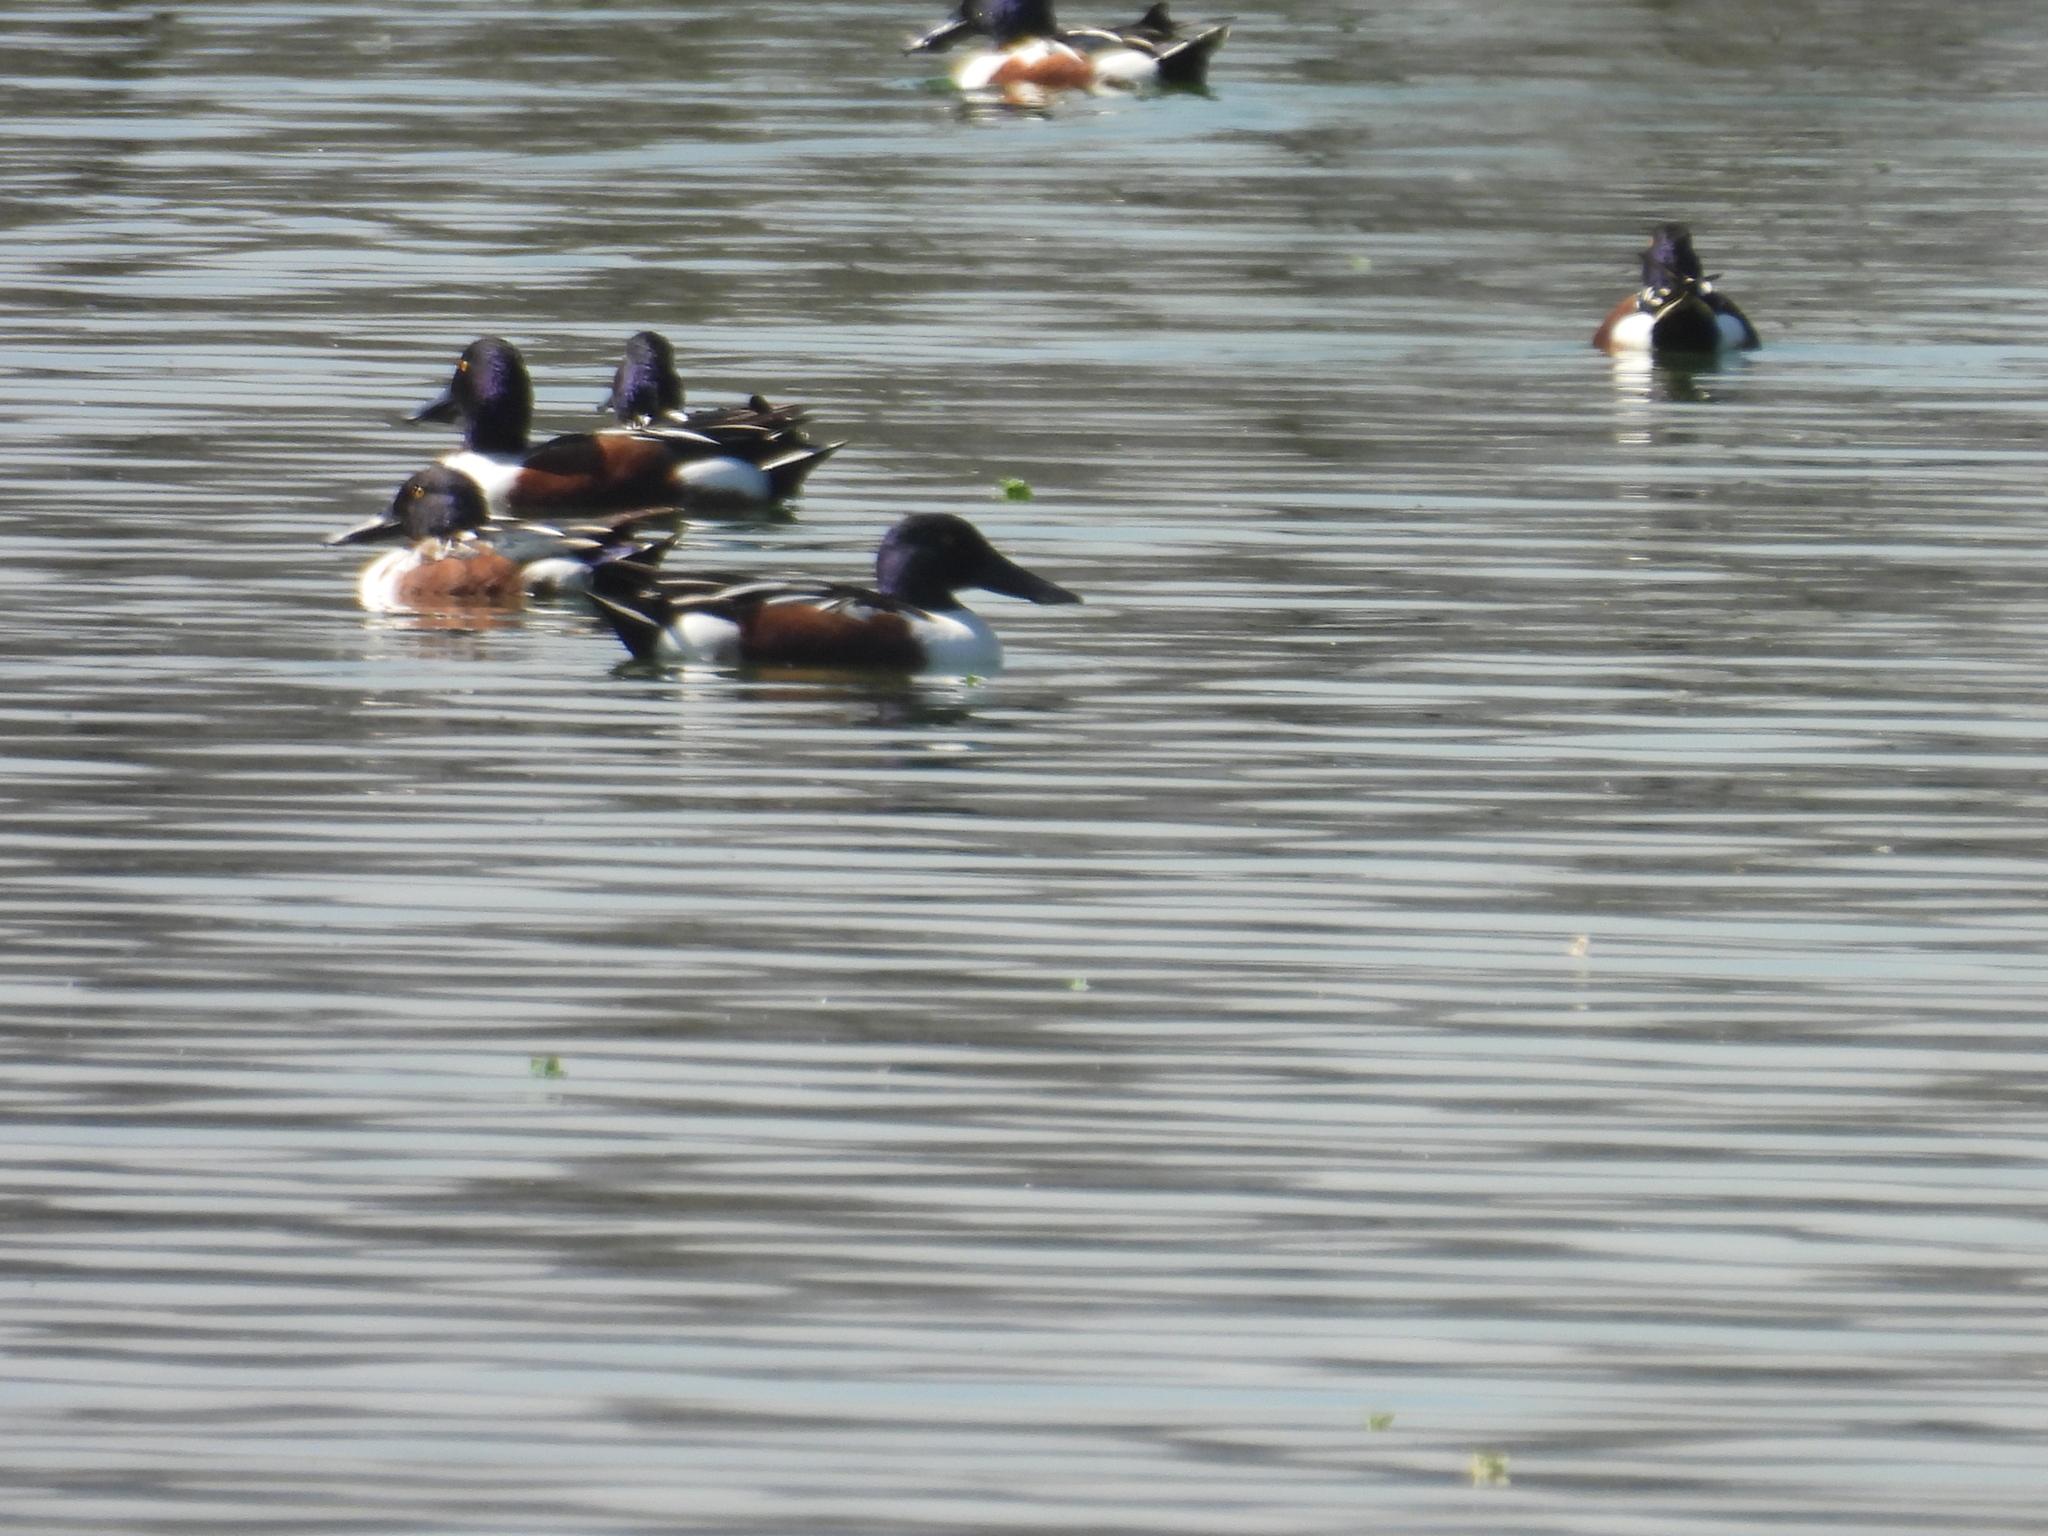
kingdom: Animalia
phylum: Chordata
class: Aves
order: Anseriformes
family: Anatidae
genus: Spatula
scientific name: Spatula clypeata
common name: Northern shoveler
